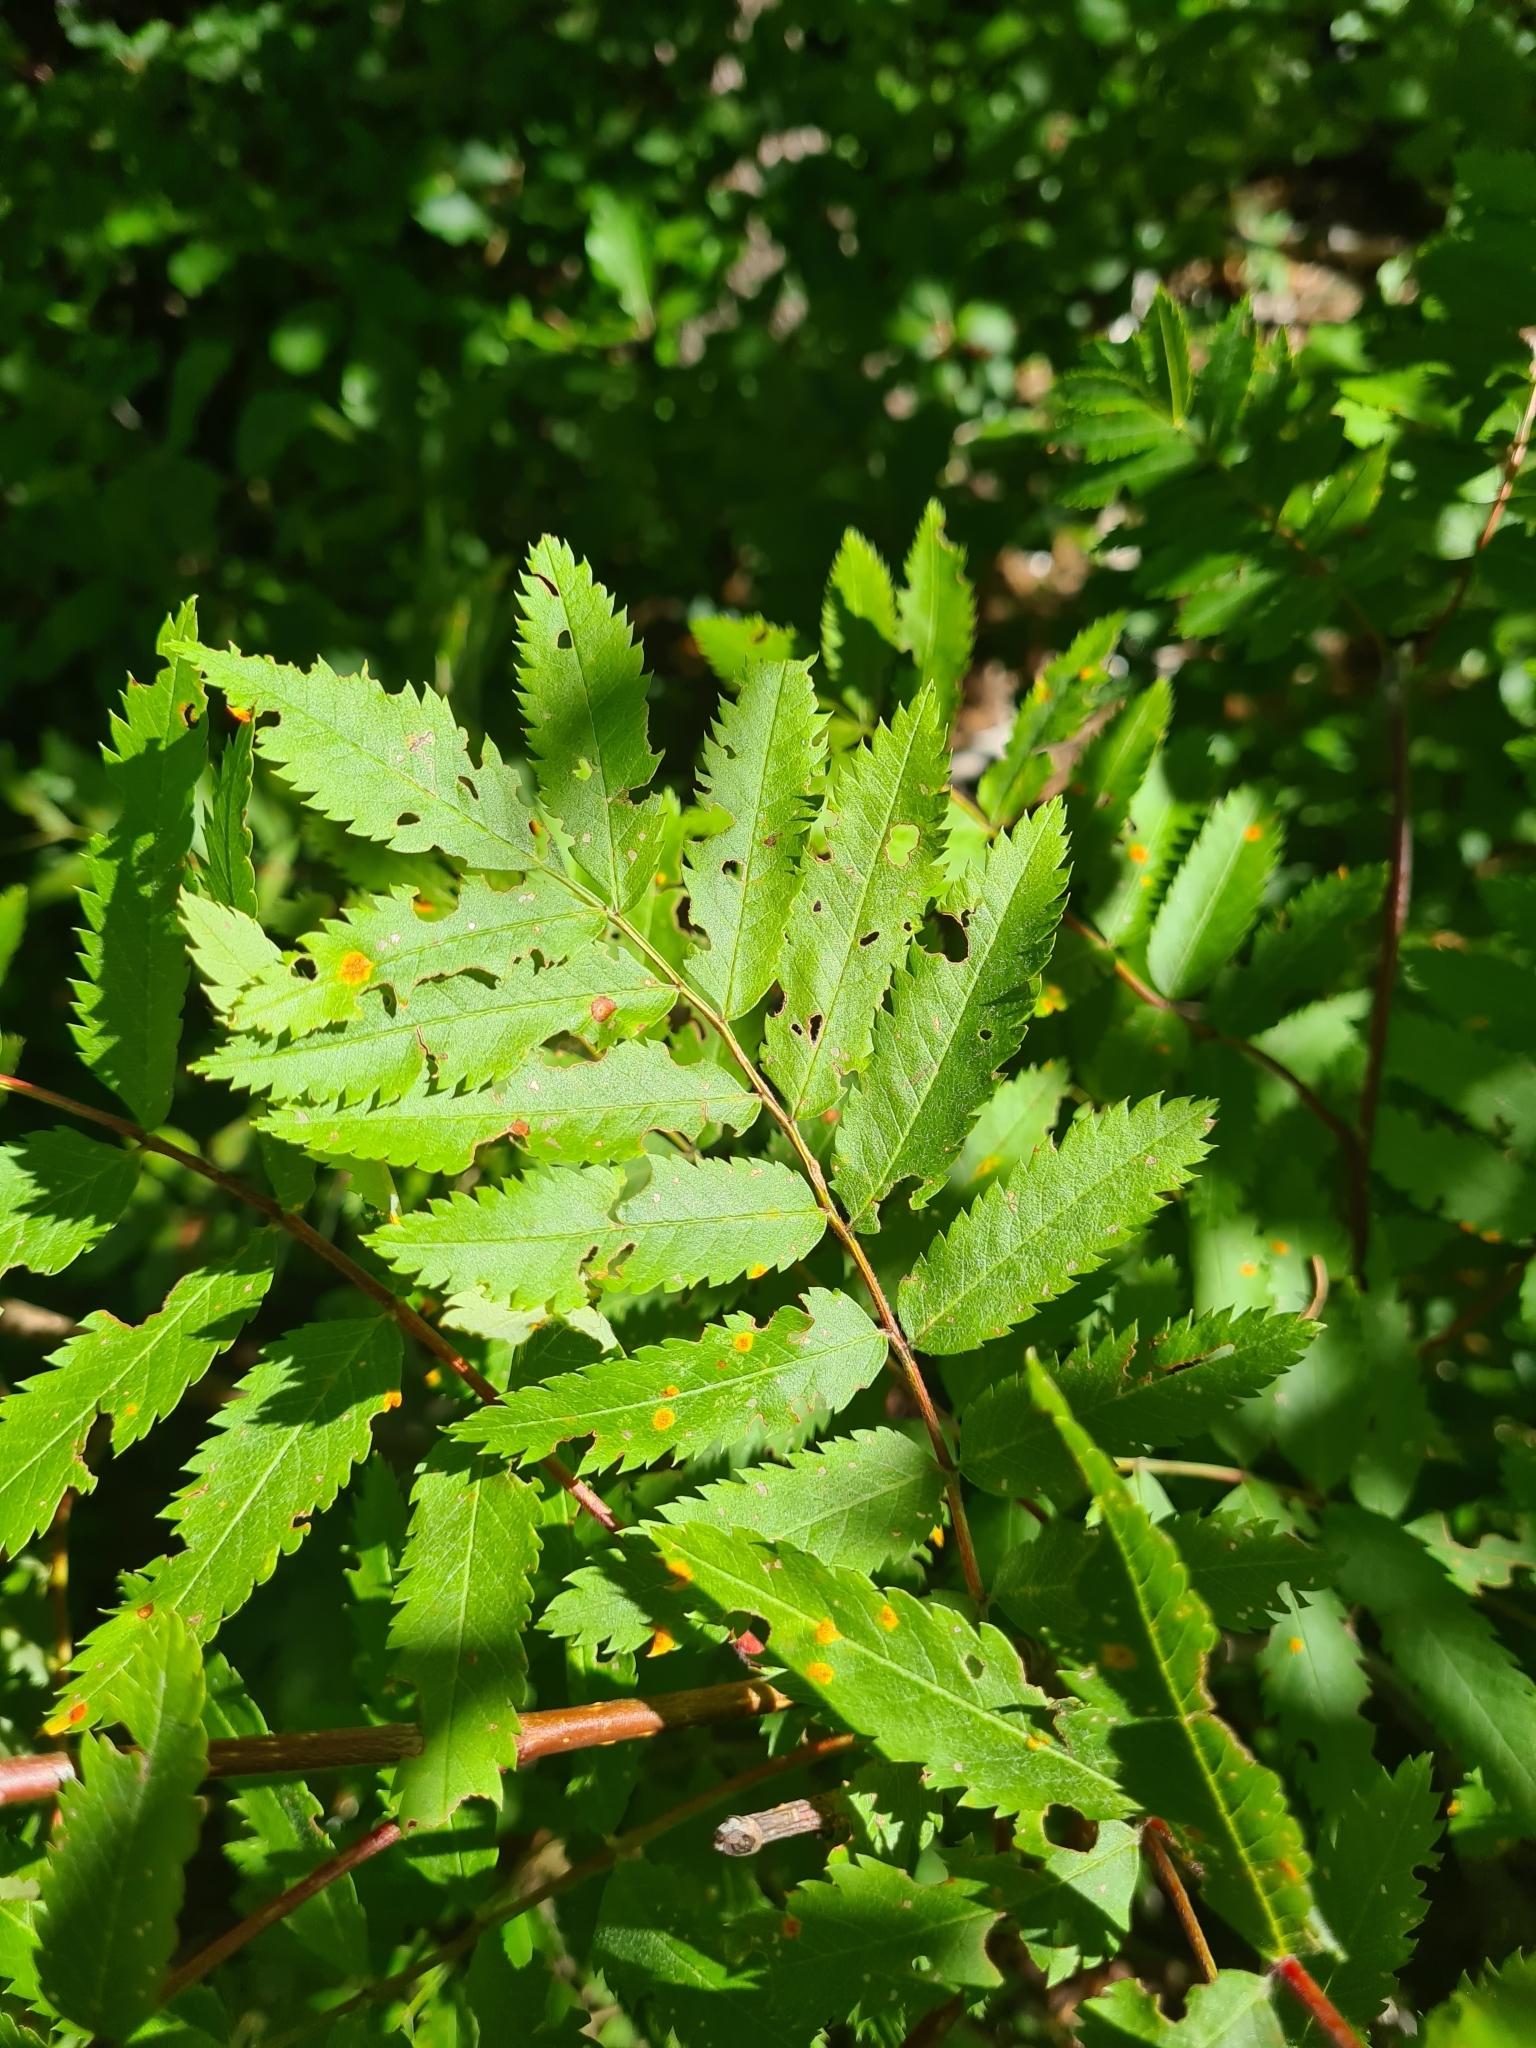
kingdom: Plantae
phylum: Tracheophyta
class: Magnoliopsida
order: Rosales
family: Rosaceae
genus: Sorbus
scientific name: Sorbus aucuparia
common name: Rowan
